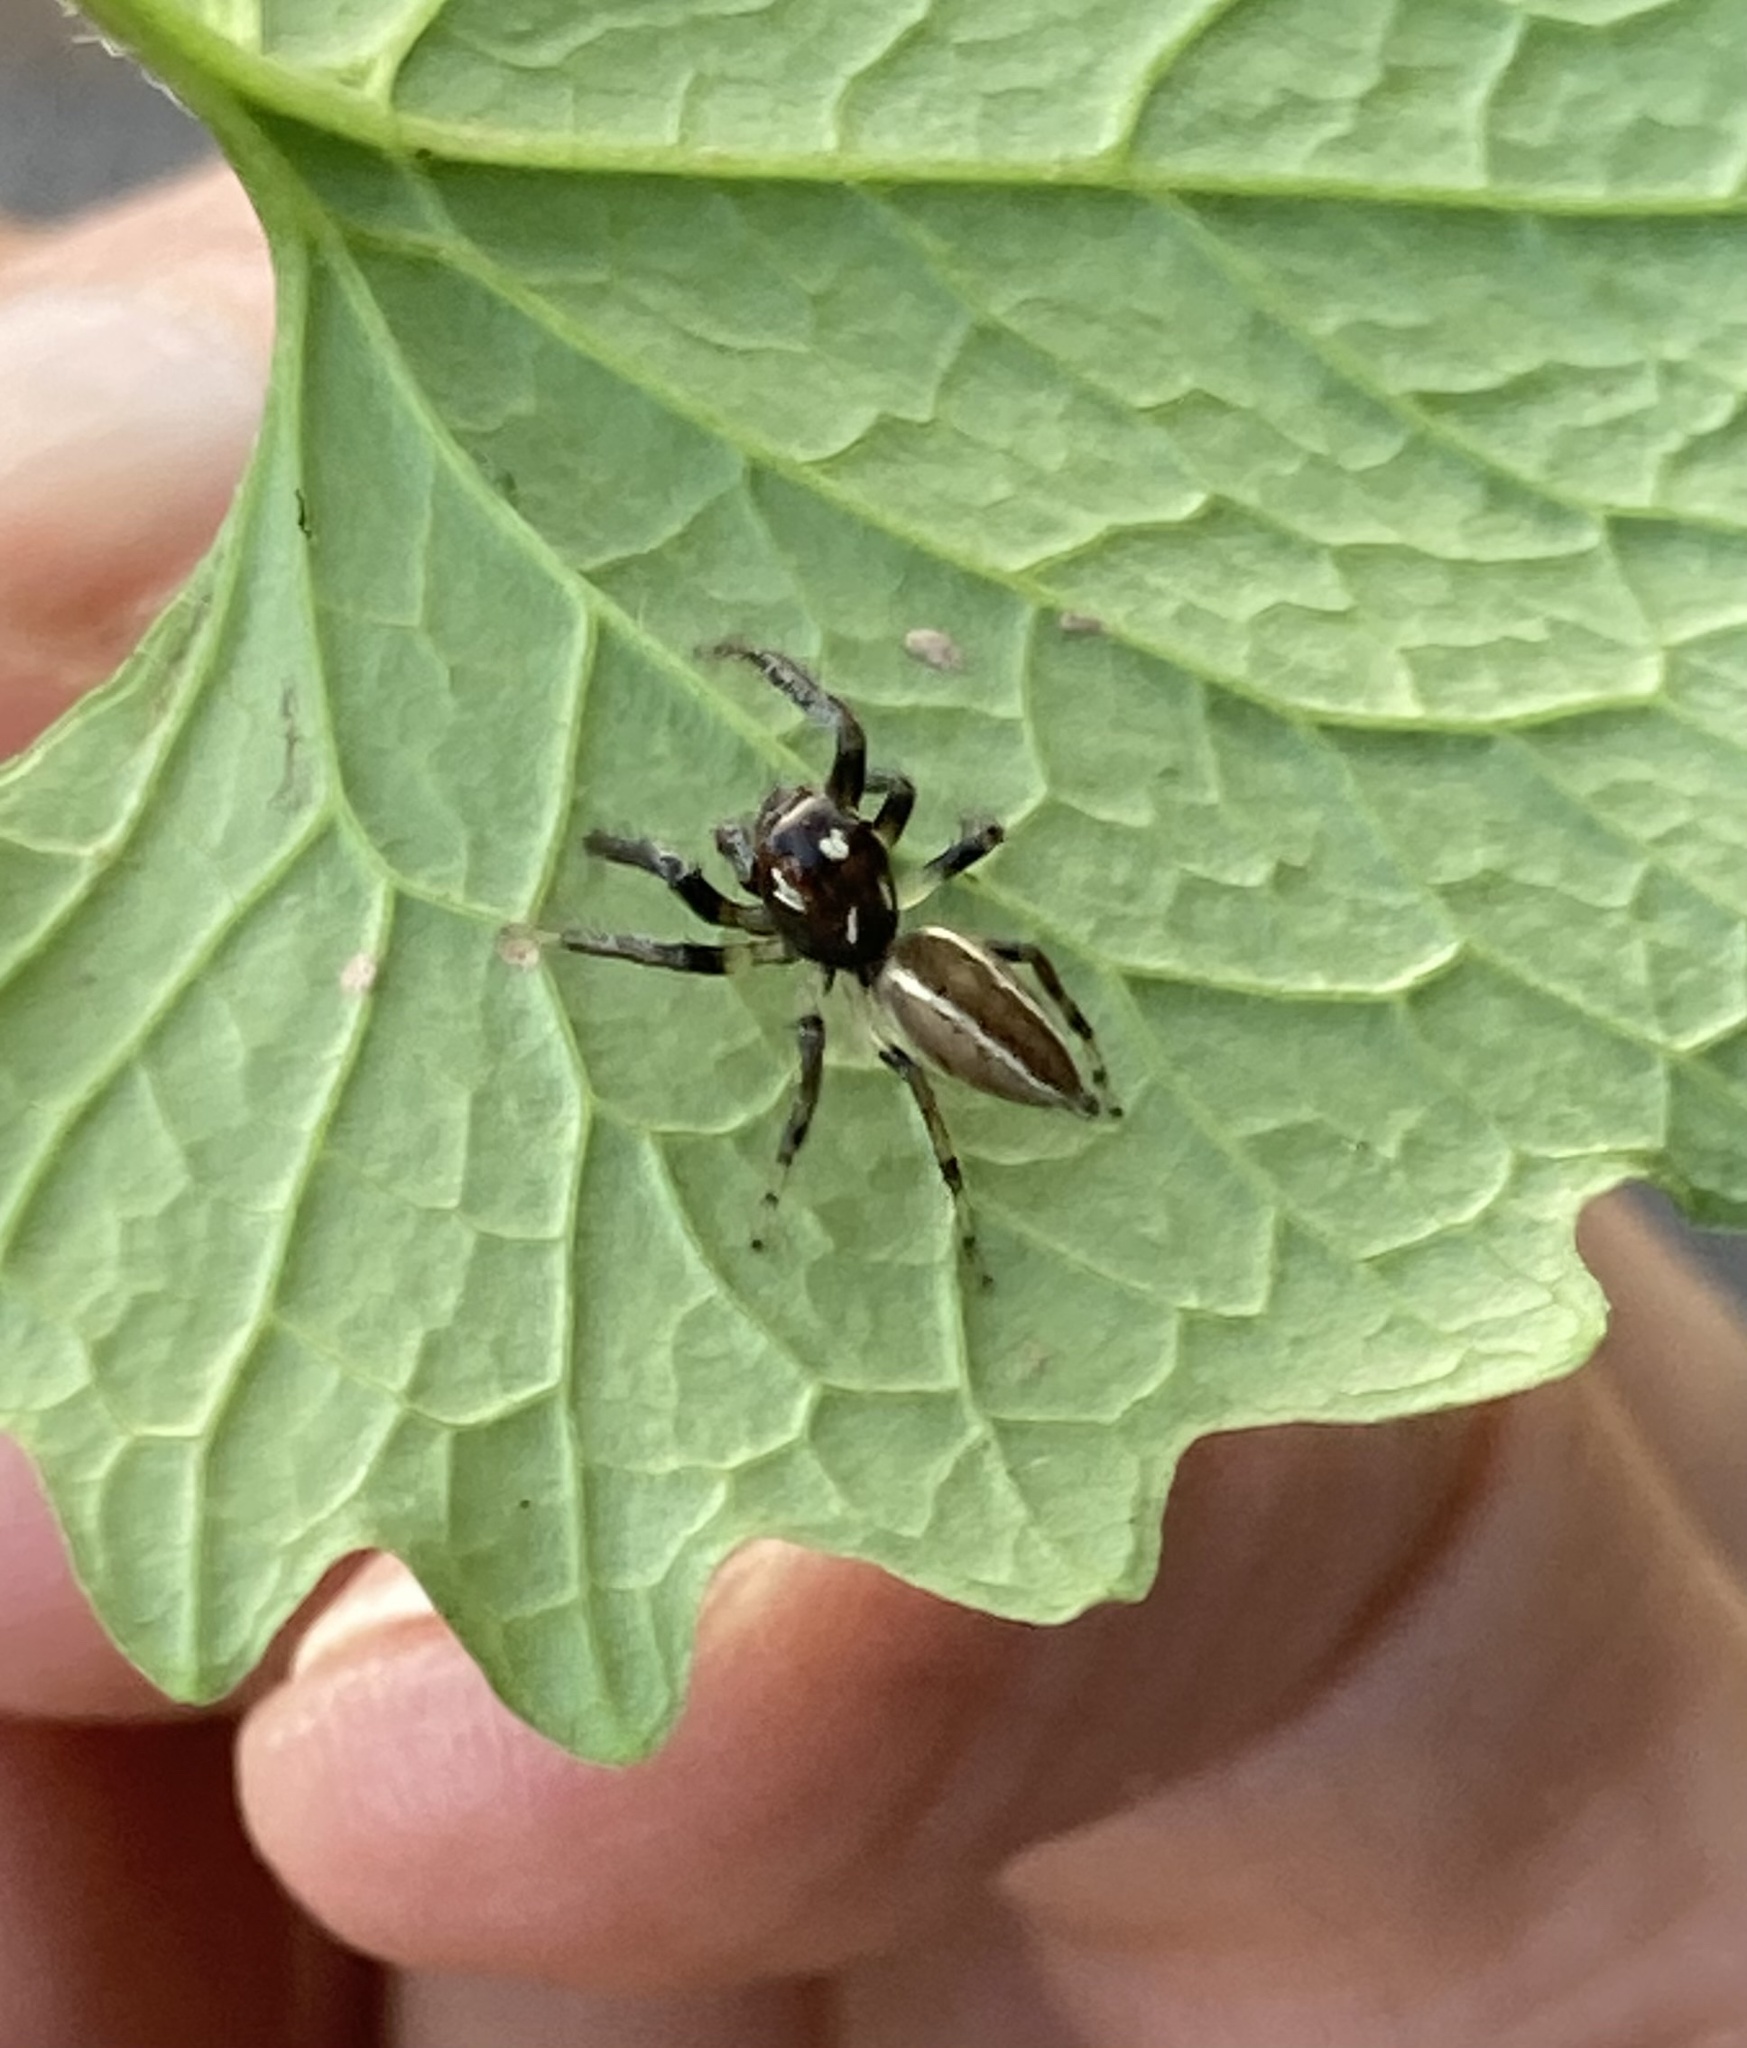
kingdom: Animalia
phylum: Arthropoda
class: Arachnida
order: Araneae
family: Salticidae
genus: Colonus
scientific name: Colonus sylvanus
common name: Jumping spiders
